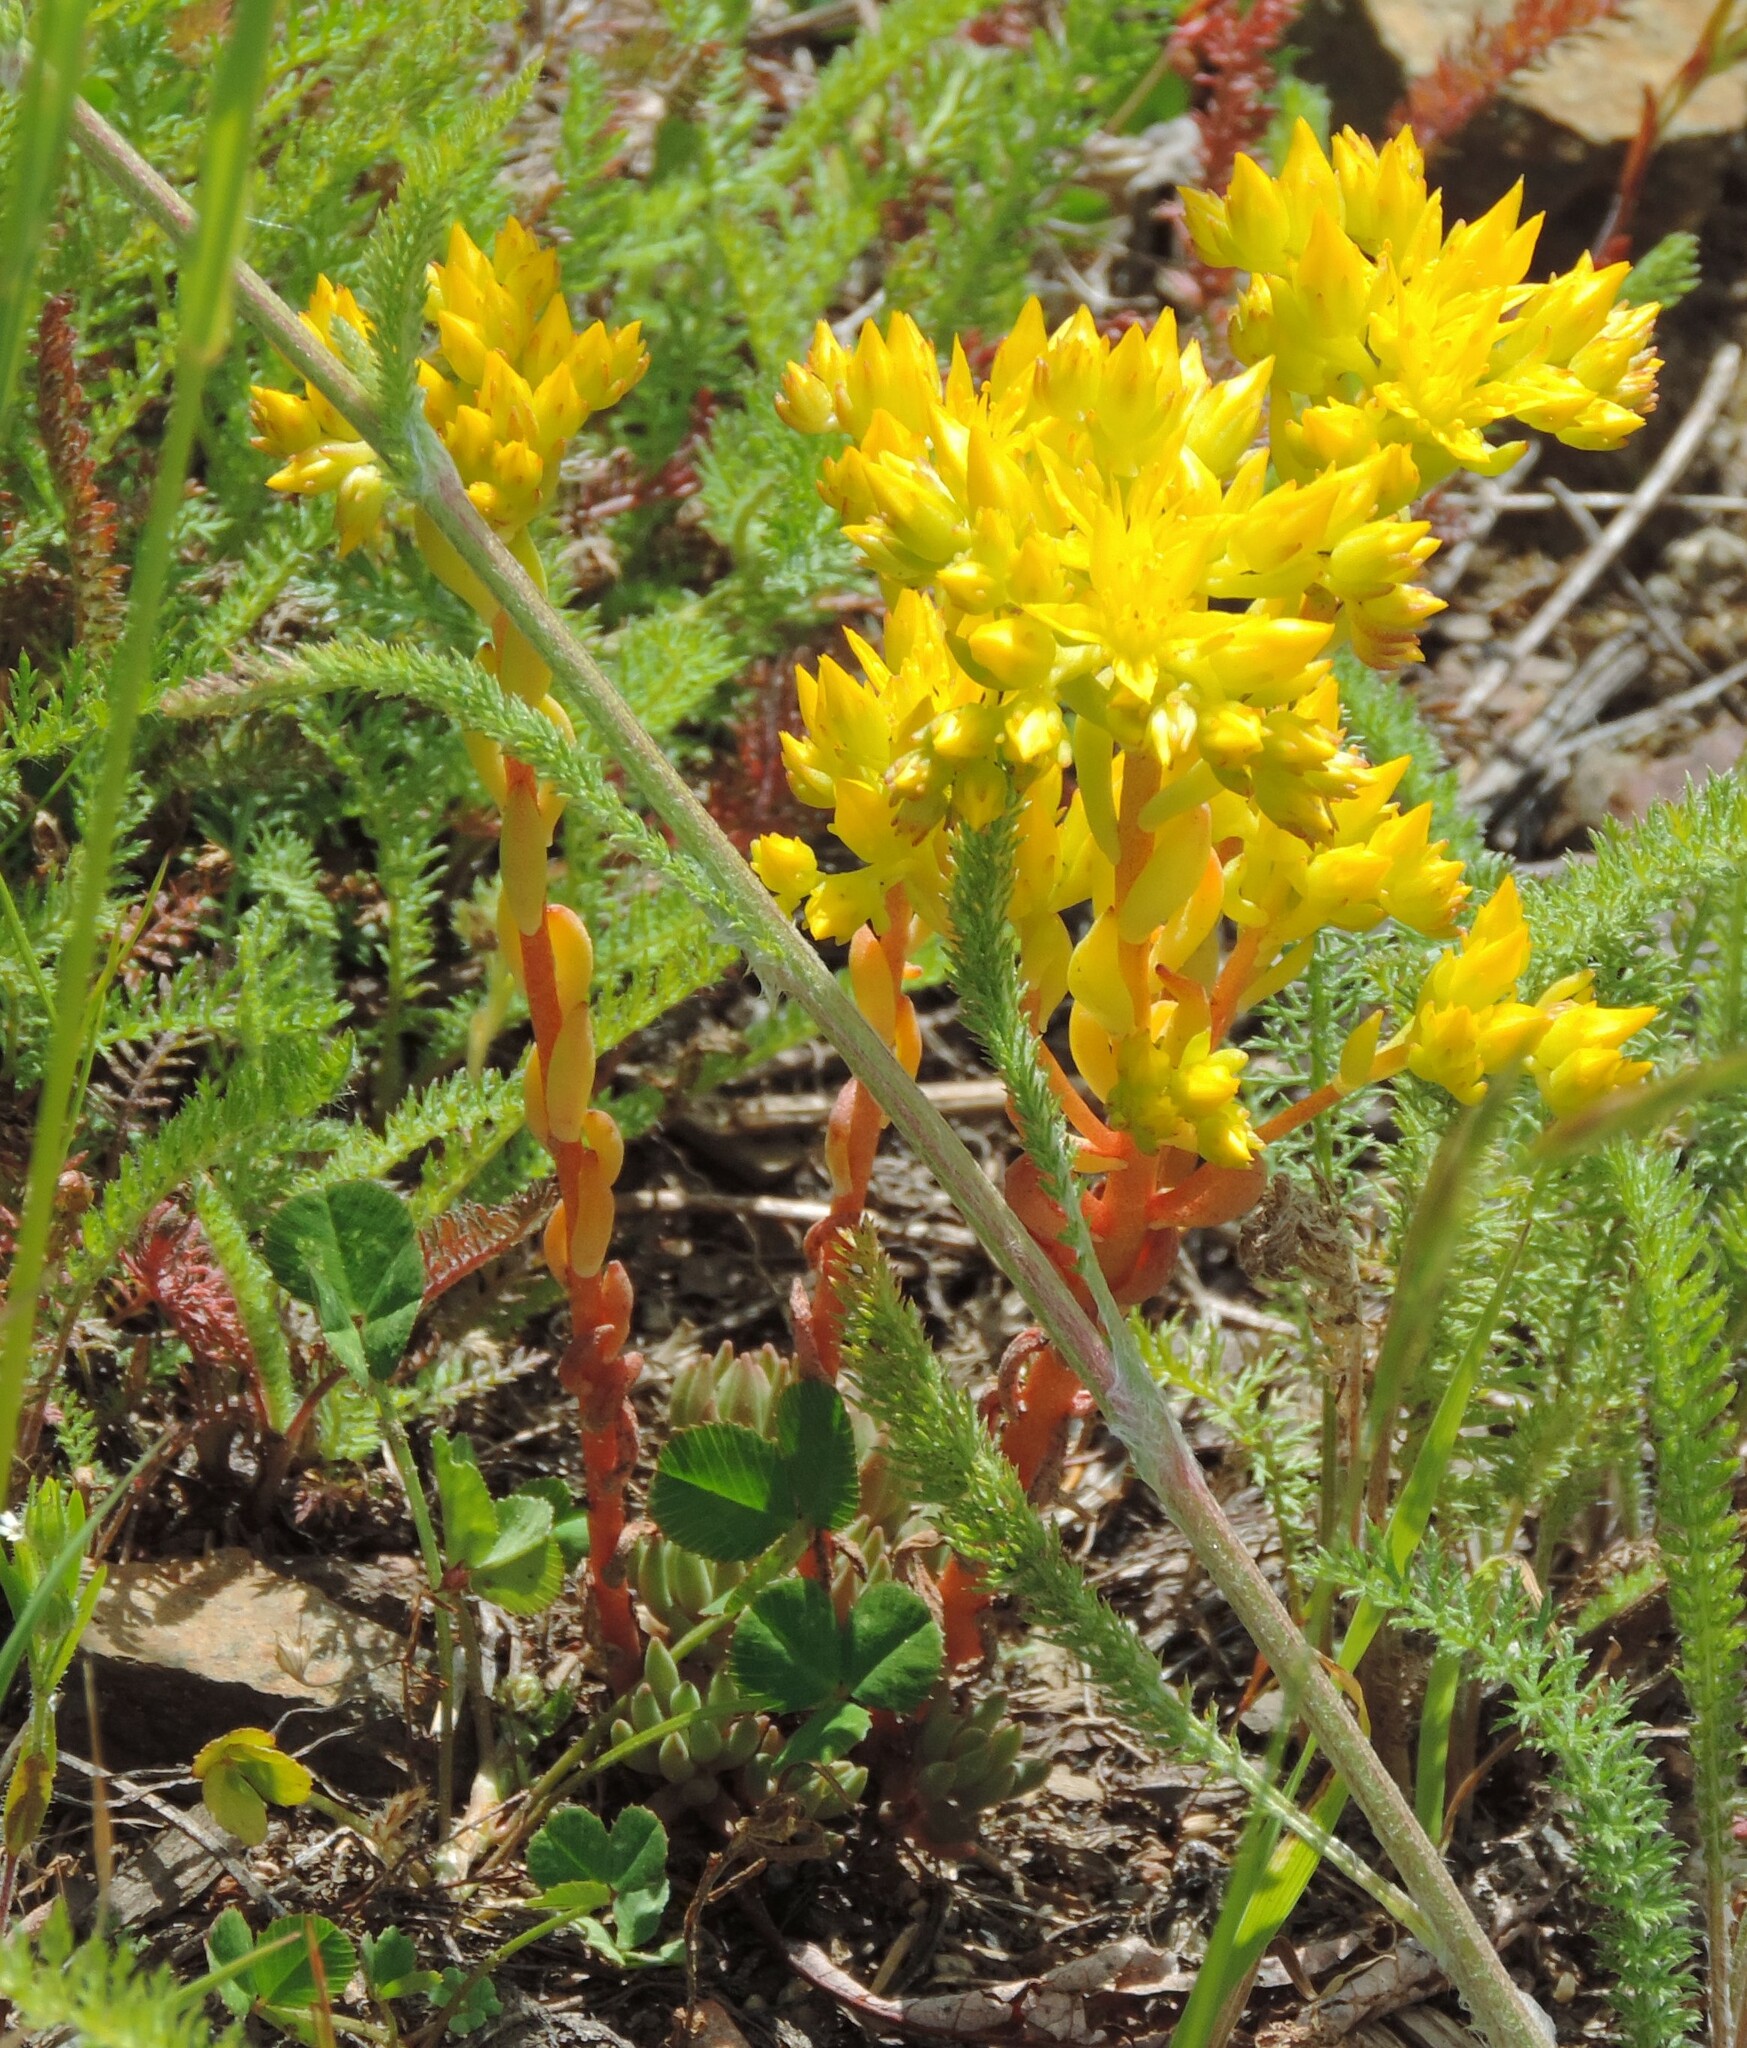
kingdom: Plantae
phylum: Tracheophyta
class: Magnoliopsida
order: Saxifragales
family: Crassulaceae
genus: Sedum
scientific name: Sedum lanceolatum
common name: Common stonecrop
